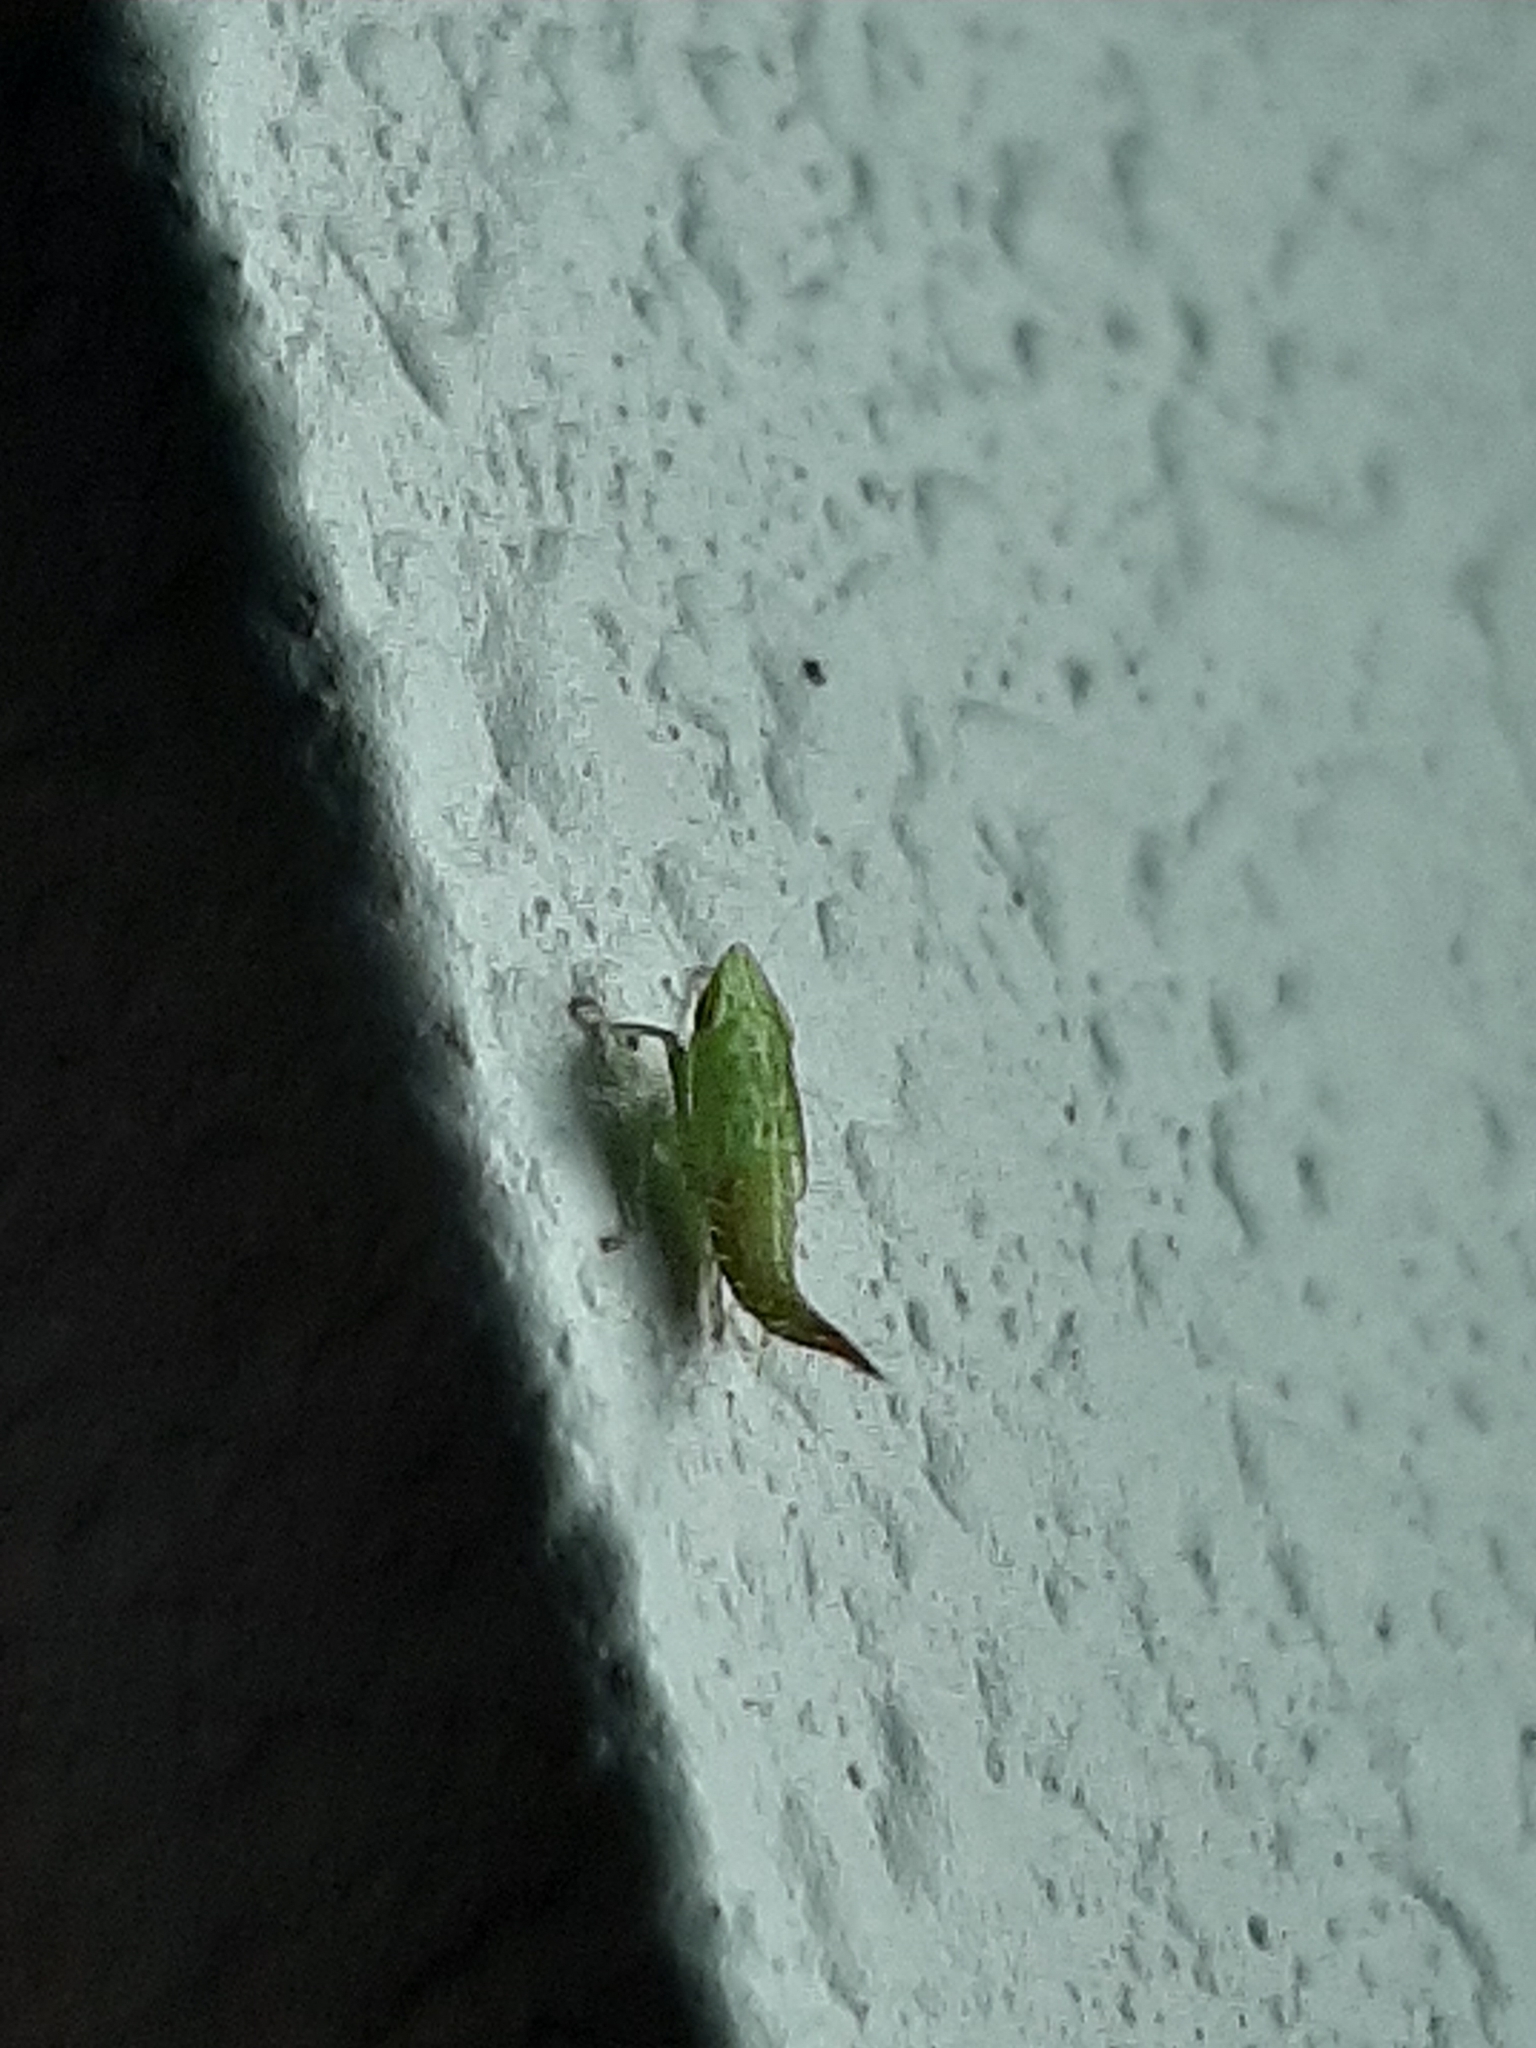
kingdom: Animalia
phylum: Arthropoda
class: Insecta
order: Hemiptera
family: Cicadellidae
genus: Fieberiella
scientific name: Fieberiella florii
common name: Flor’s leafhopper
